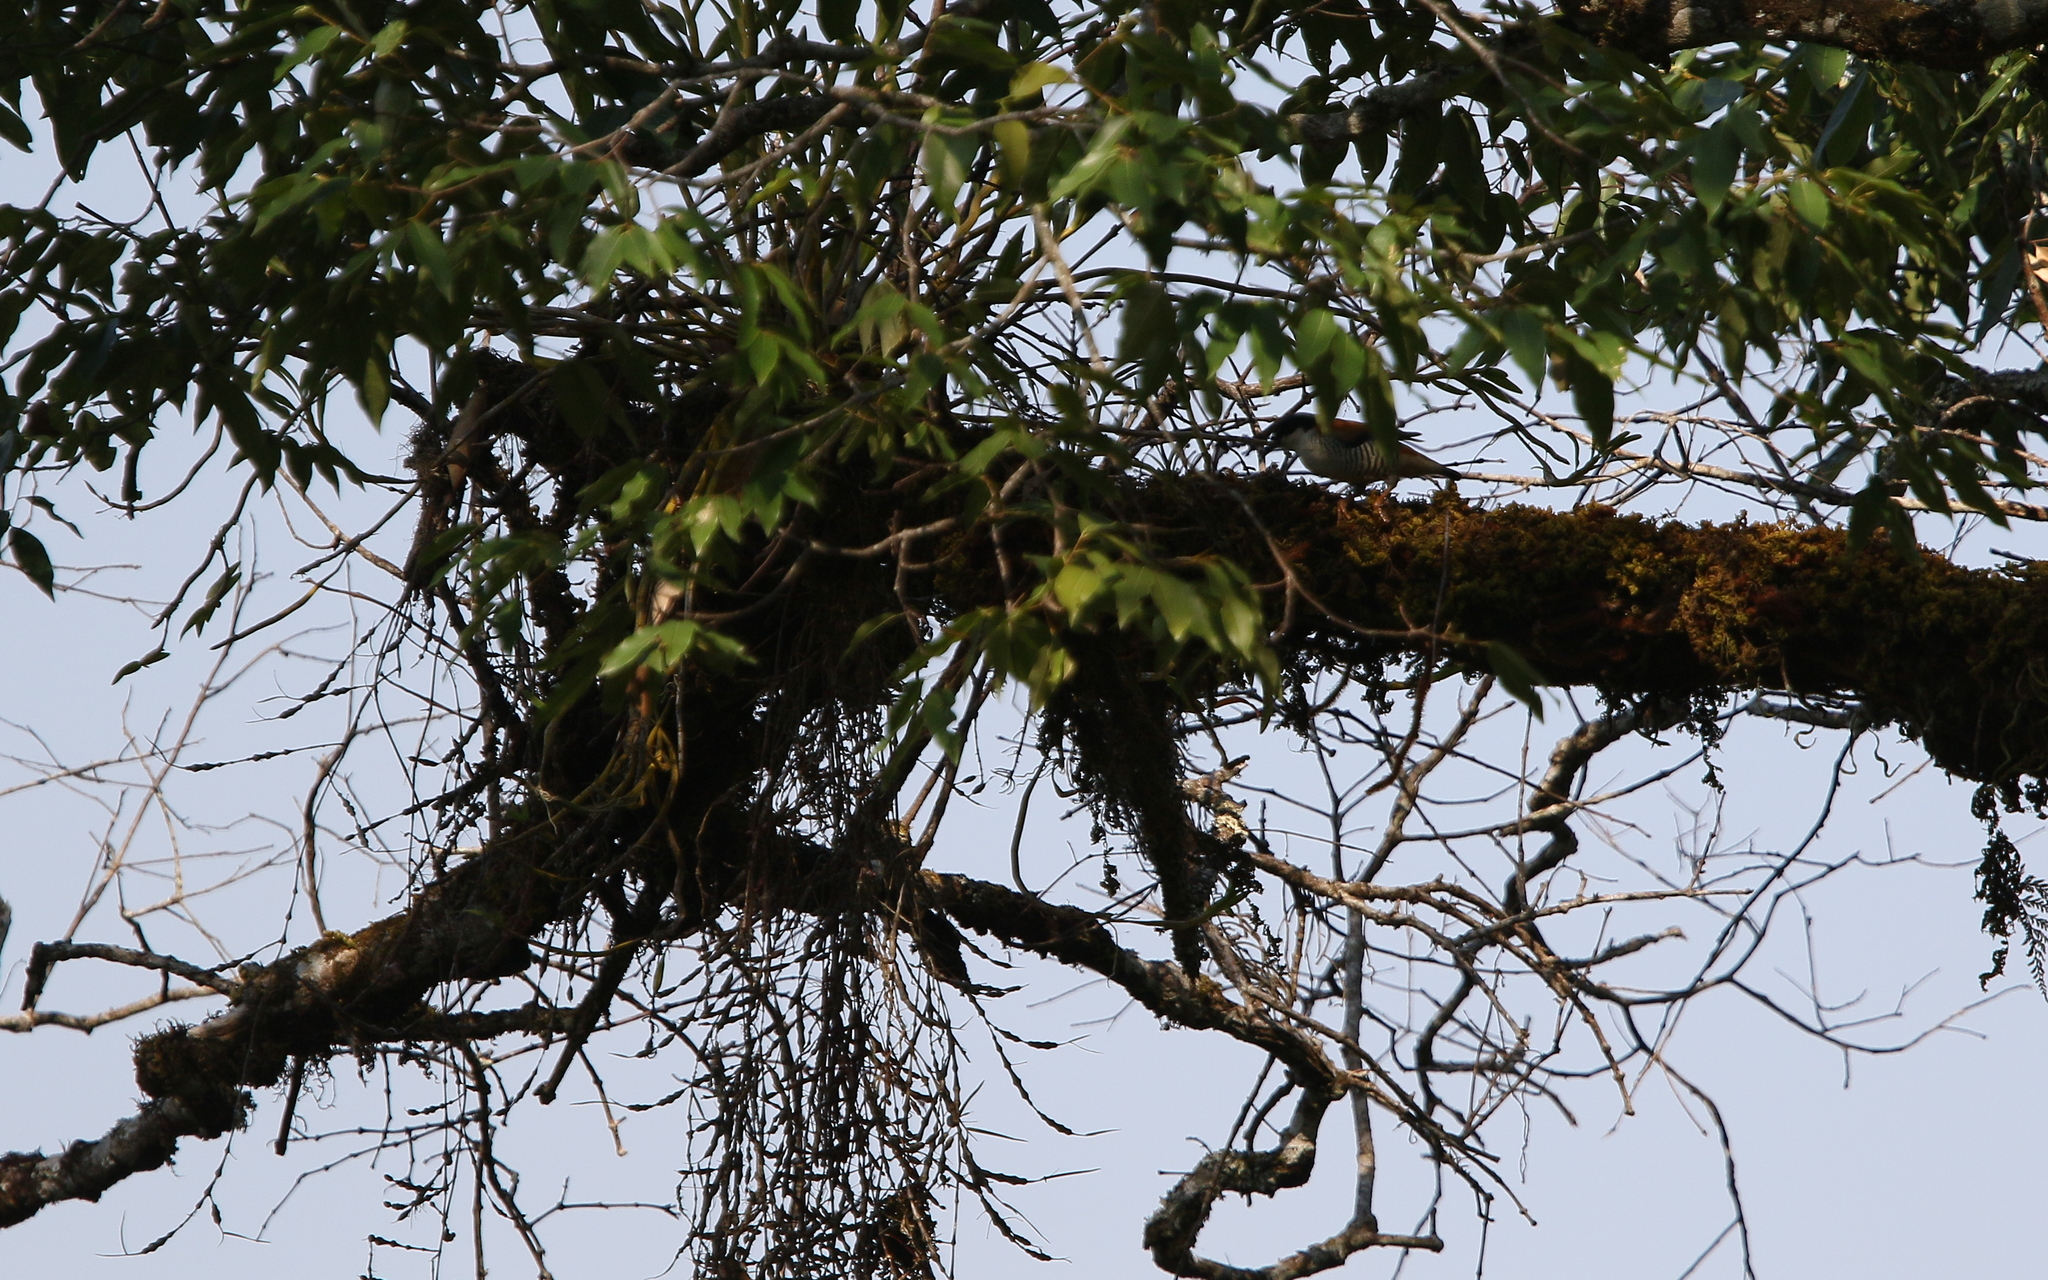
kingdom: Animalia
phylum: Chordata
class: Aves
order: Passeriformes
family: Leiothrichidae
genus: Cutia
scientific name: Cutia nipalensis
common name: Himalayan cutia
